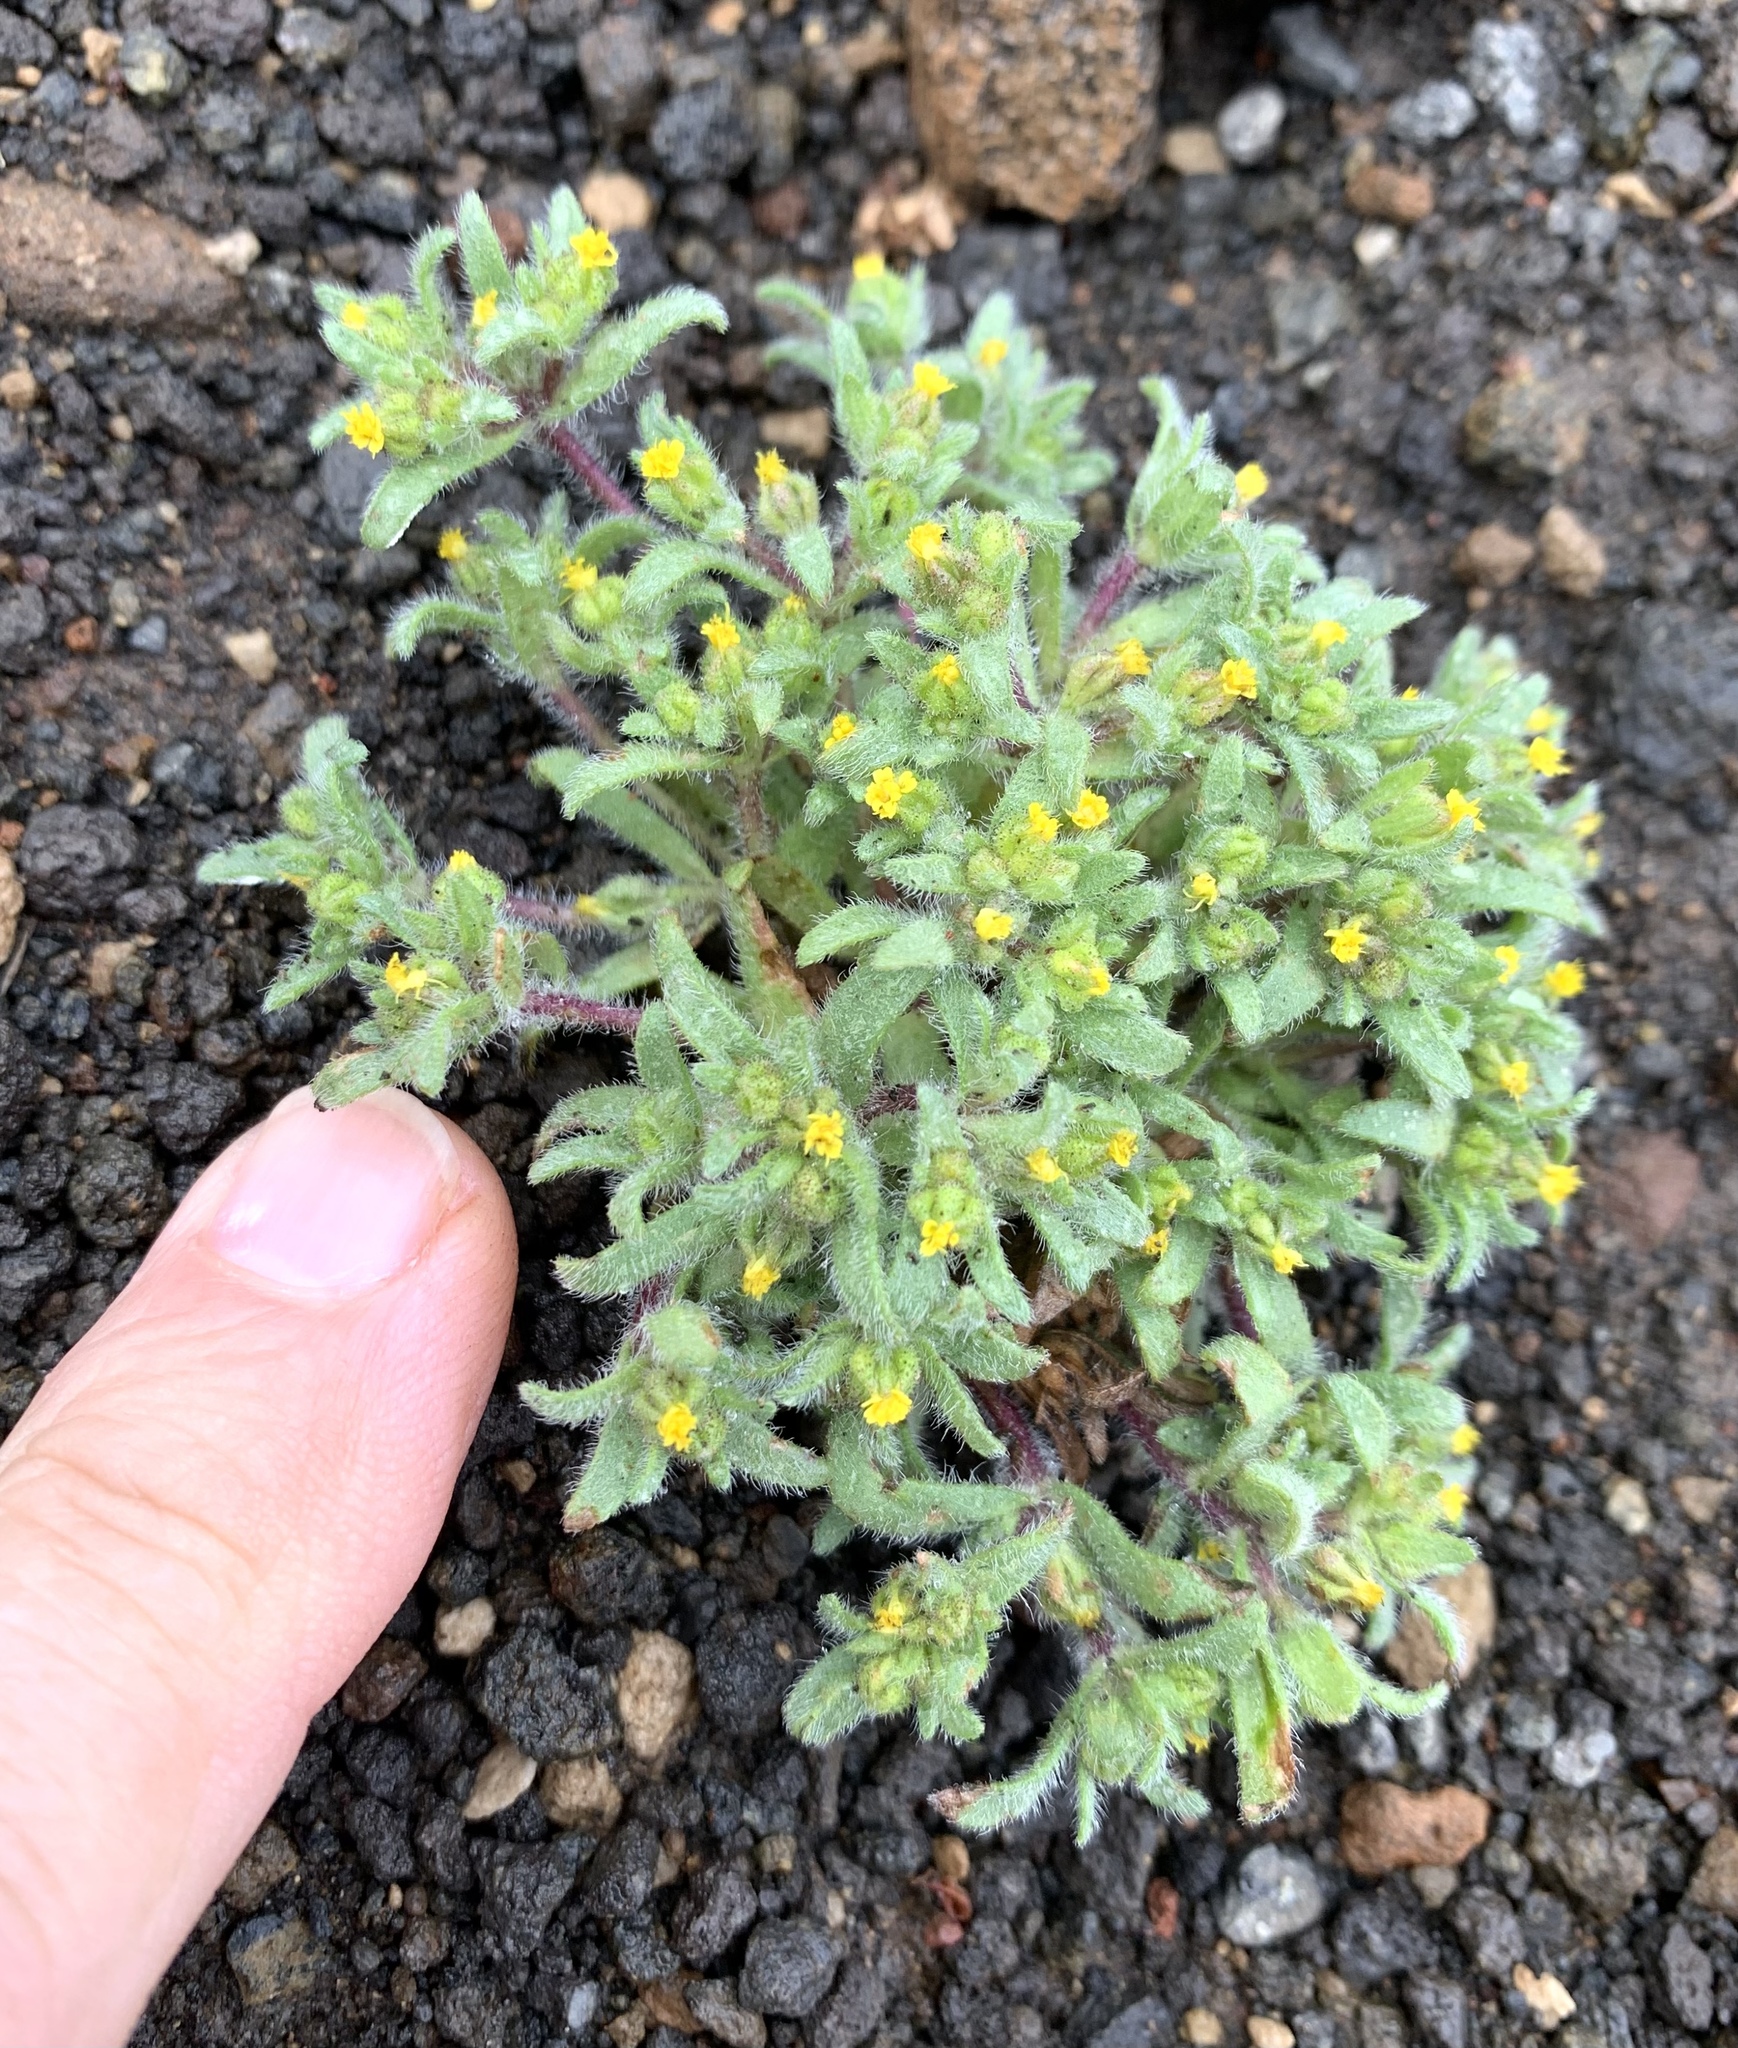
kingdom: Plantae
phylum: Tracheophyta
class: Magnoliopsida
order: Asterales
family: Asteraceae
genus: Hemizonella
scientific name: Hemizonella minima
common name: Opposite-leaved tarweed
